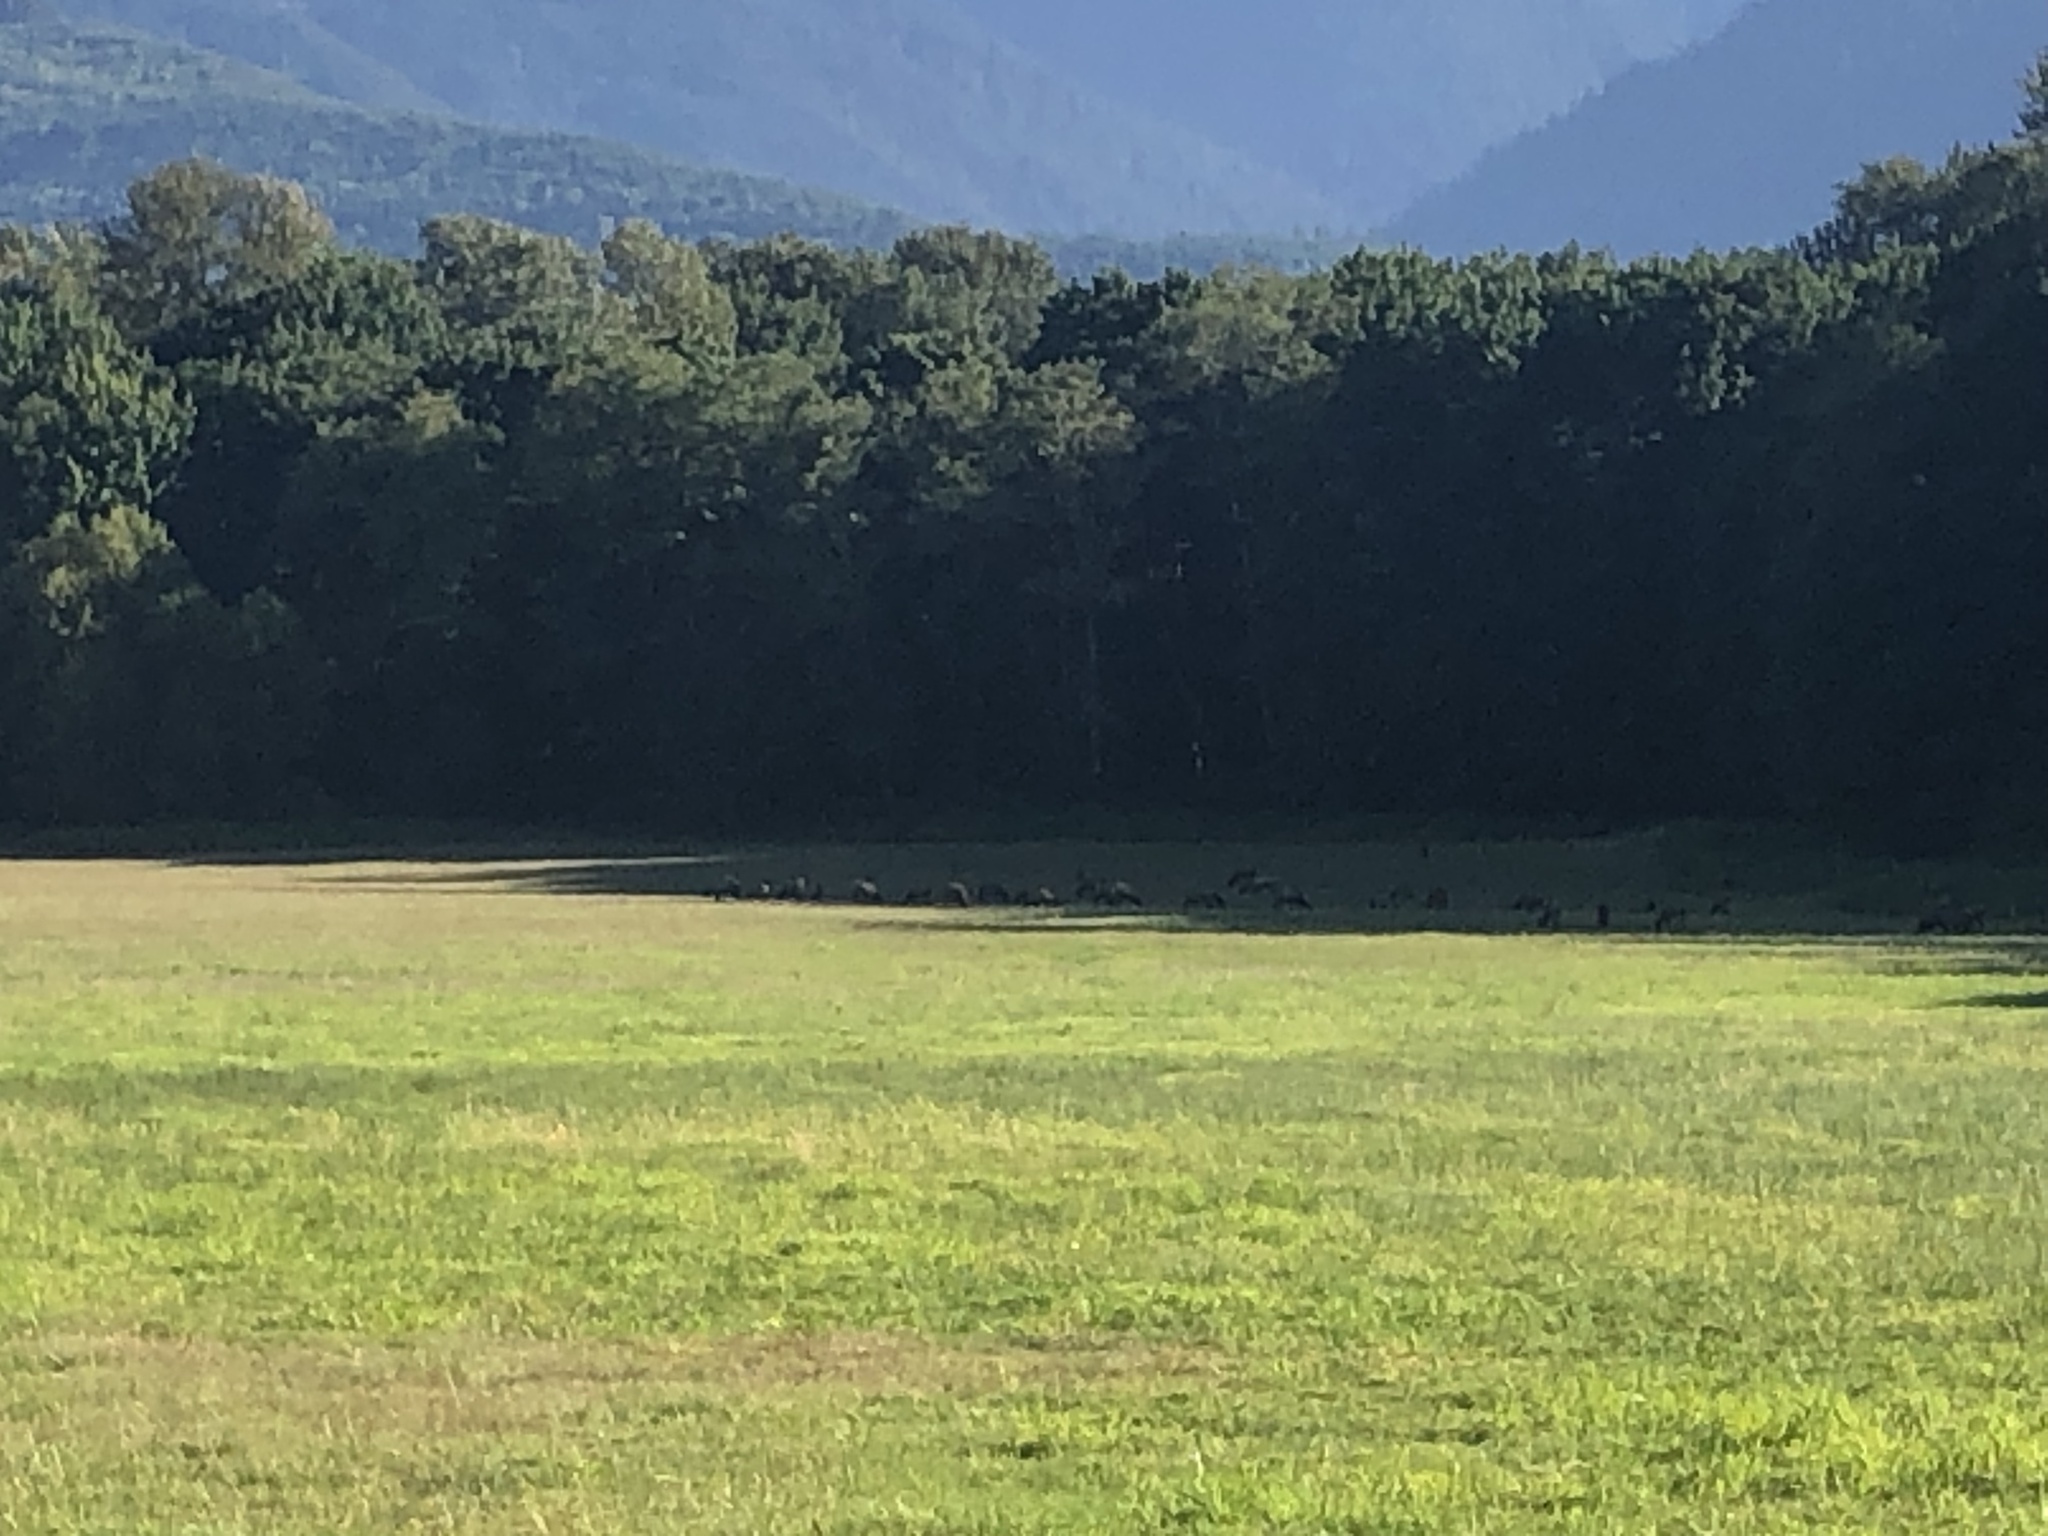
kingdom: Animalia
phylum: Chordata
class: Mammalia
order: Artiodactyla
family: Cervidae
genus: Cervus
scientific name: Cervus elaphus
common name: Red deer
